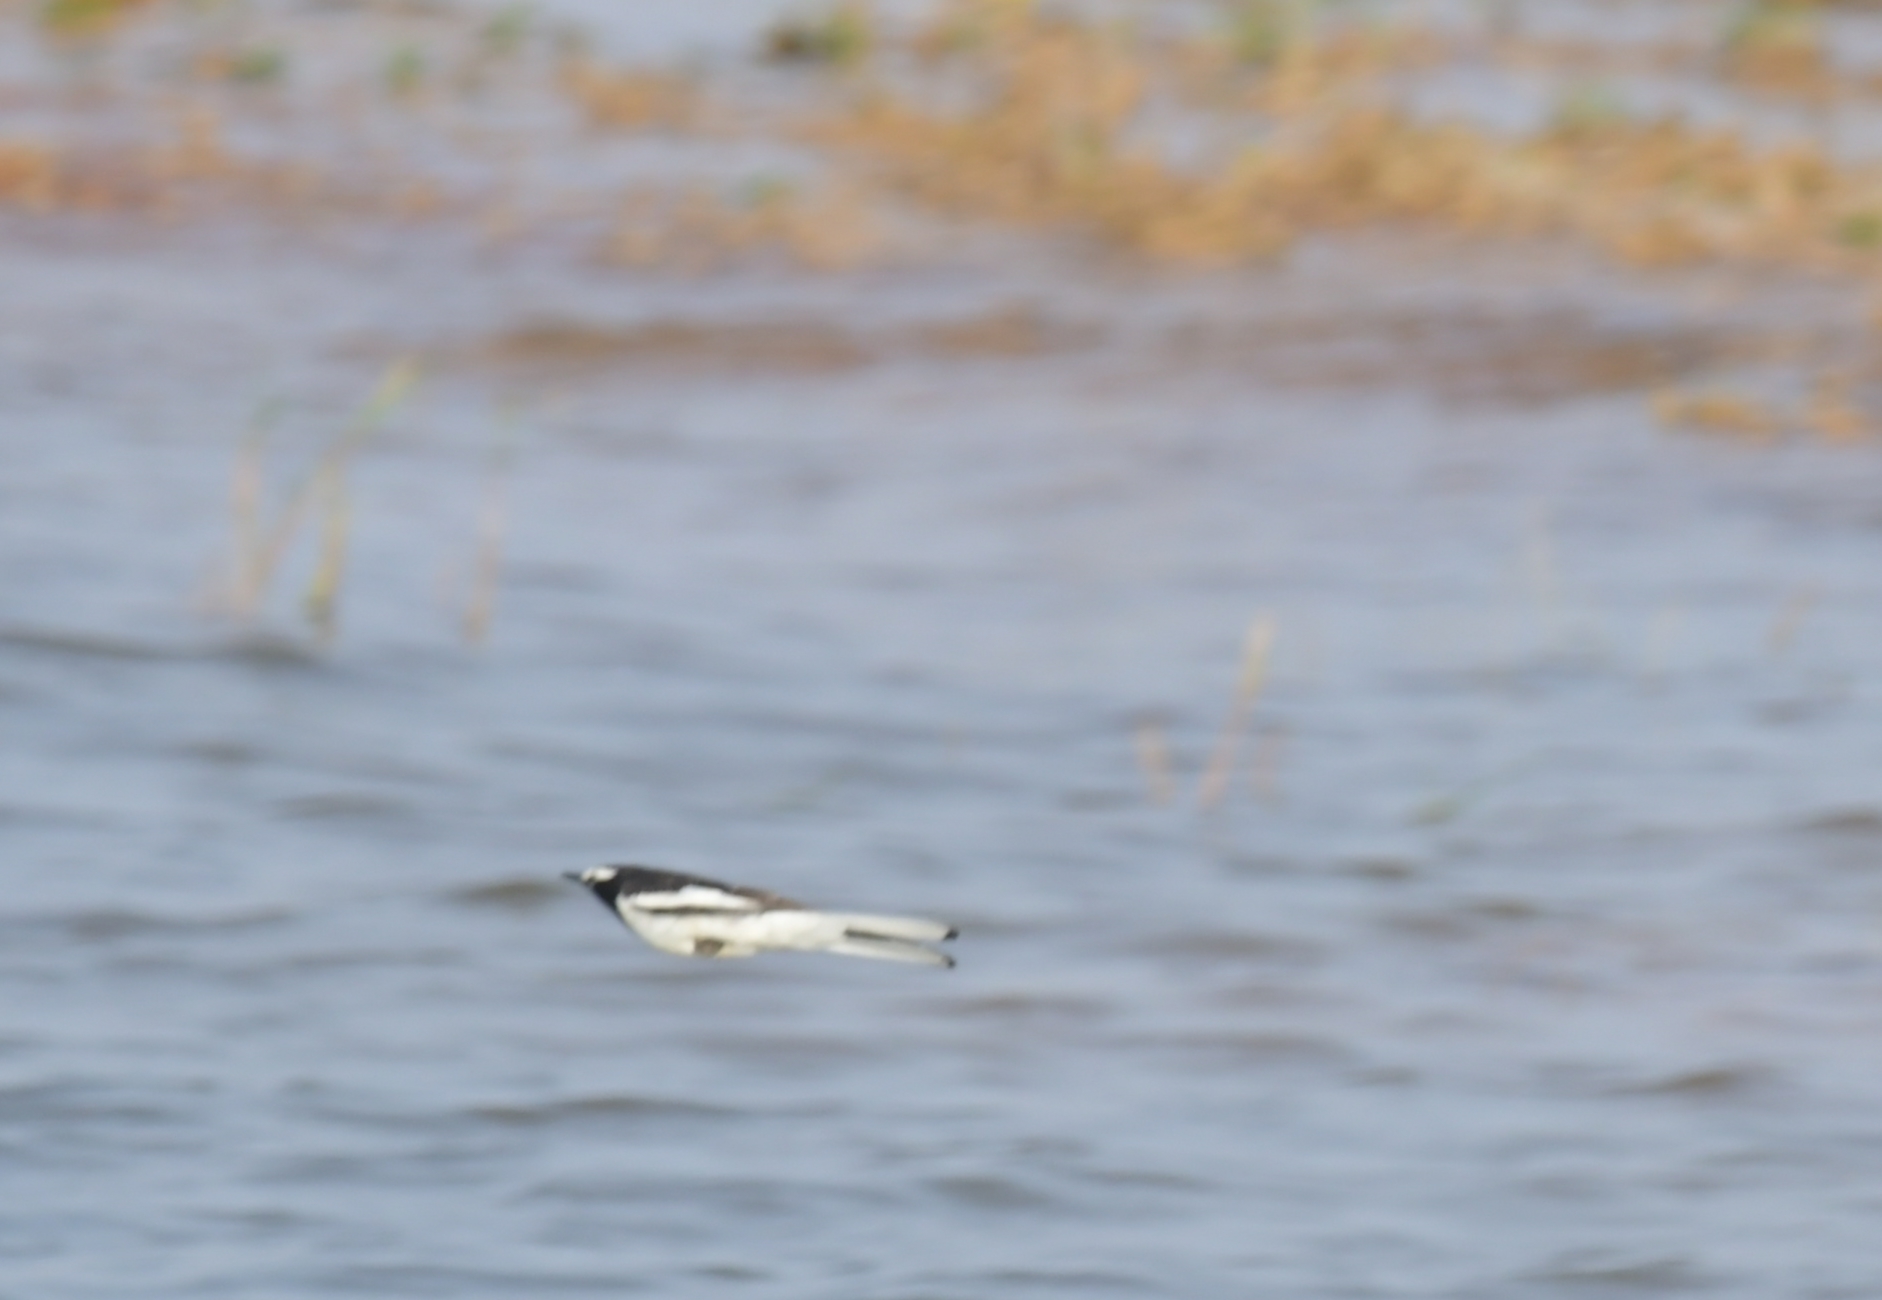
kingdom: Animalia
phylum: Chordata
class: Aves
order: Passeriformes
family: Motacillidae
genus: Motacilla
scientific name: Motacilla maderaspatensis
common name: White-browed wagtail
